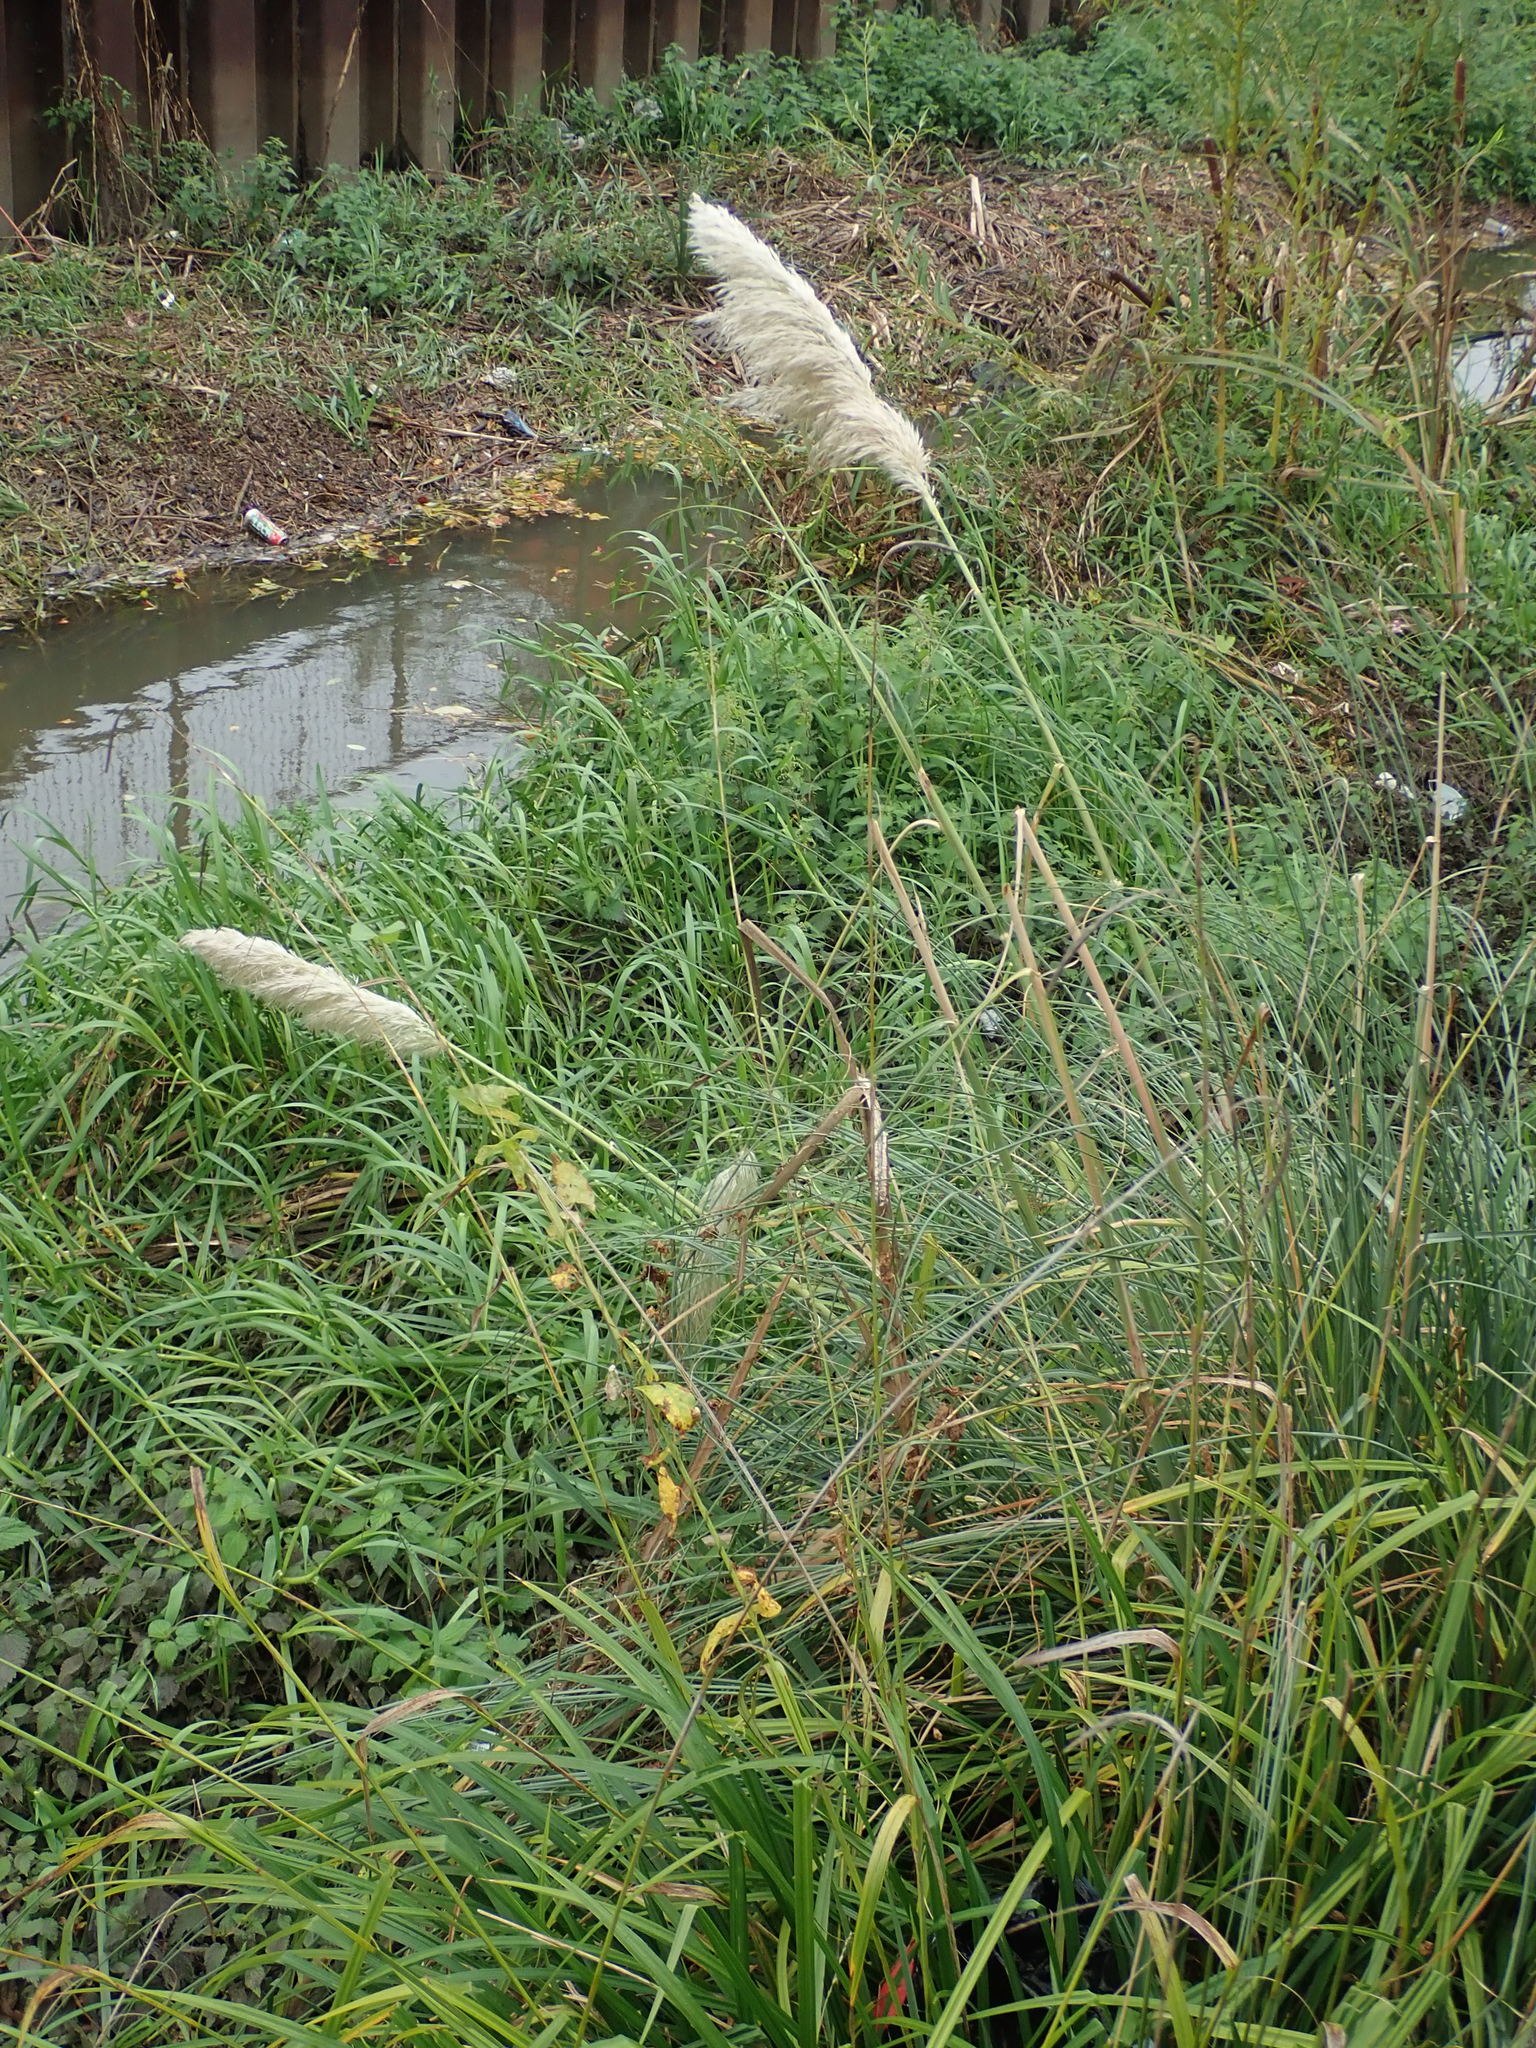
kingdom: Plantae
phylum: Tracheophyta
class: Liliopsida
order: Poales
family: Poaceae
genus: Cortaderia
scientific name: Cortaderia selloana
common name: Uruguayan pampas grass
